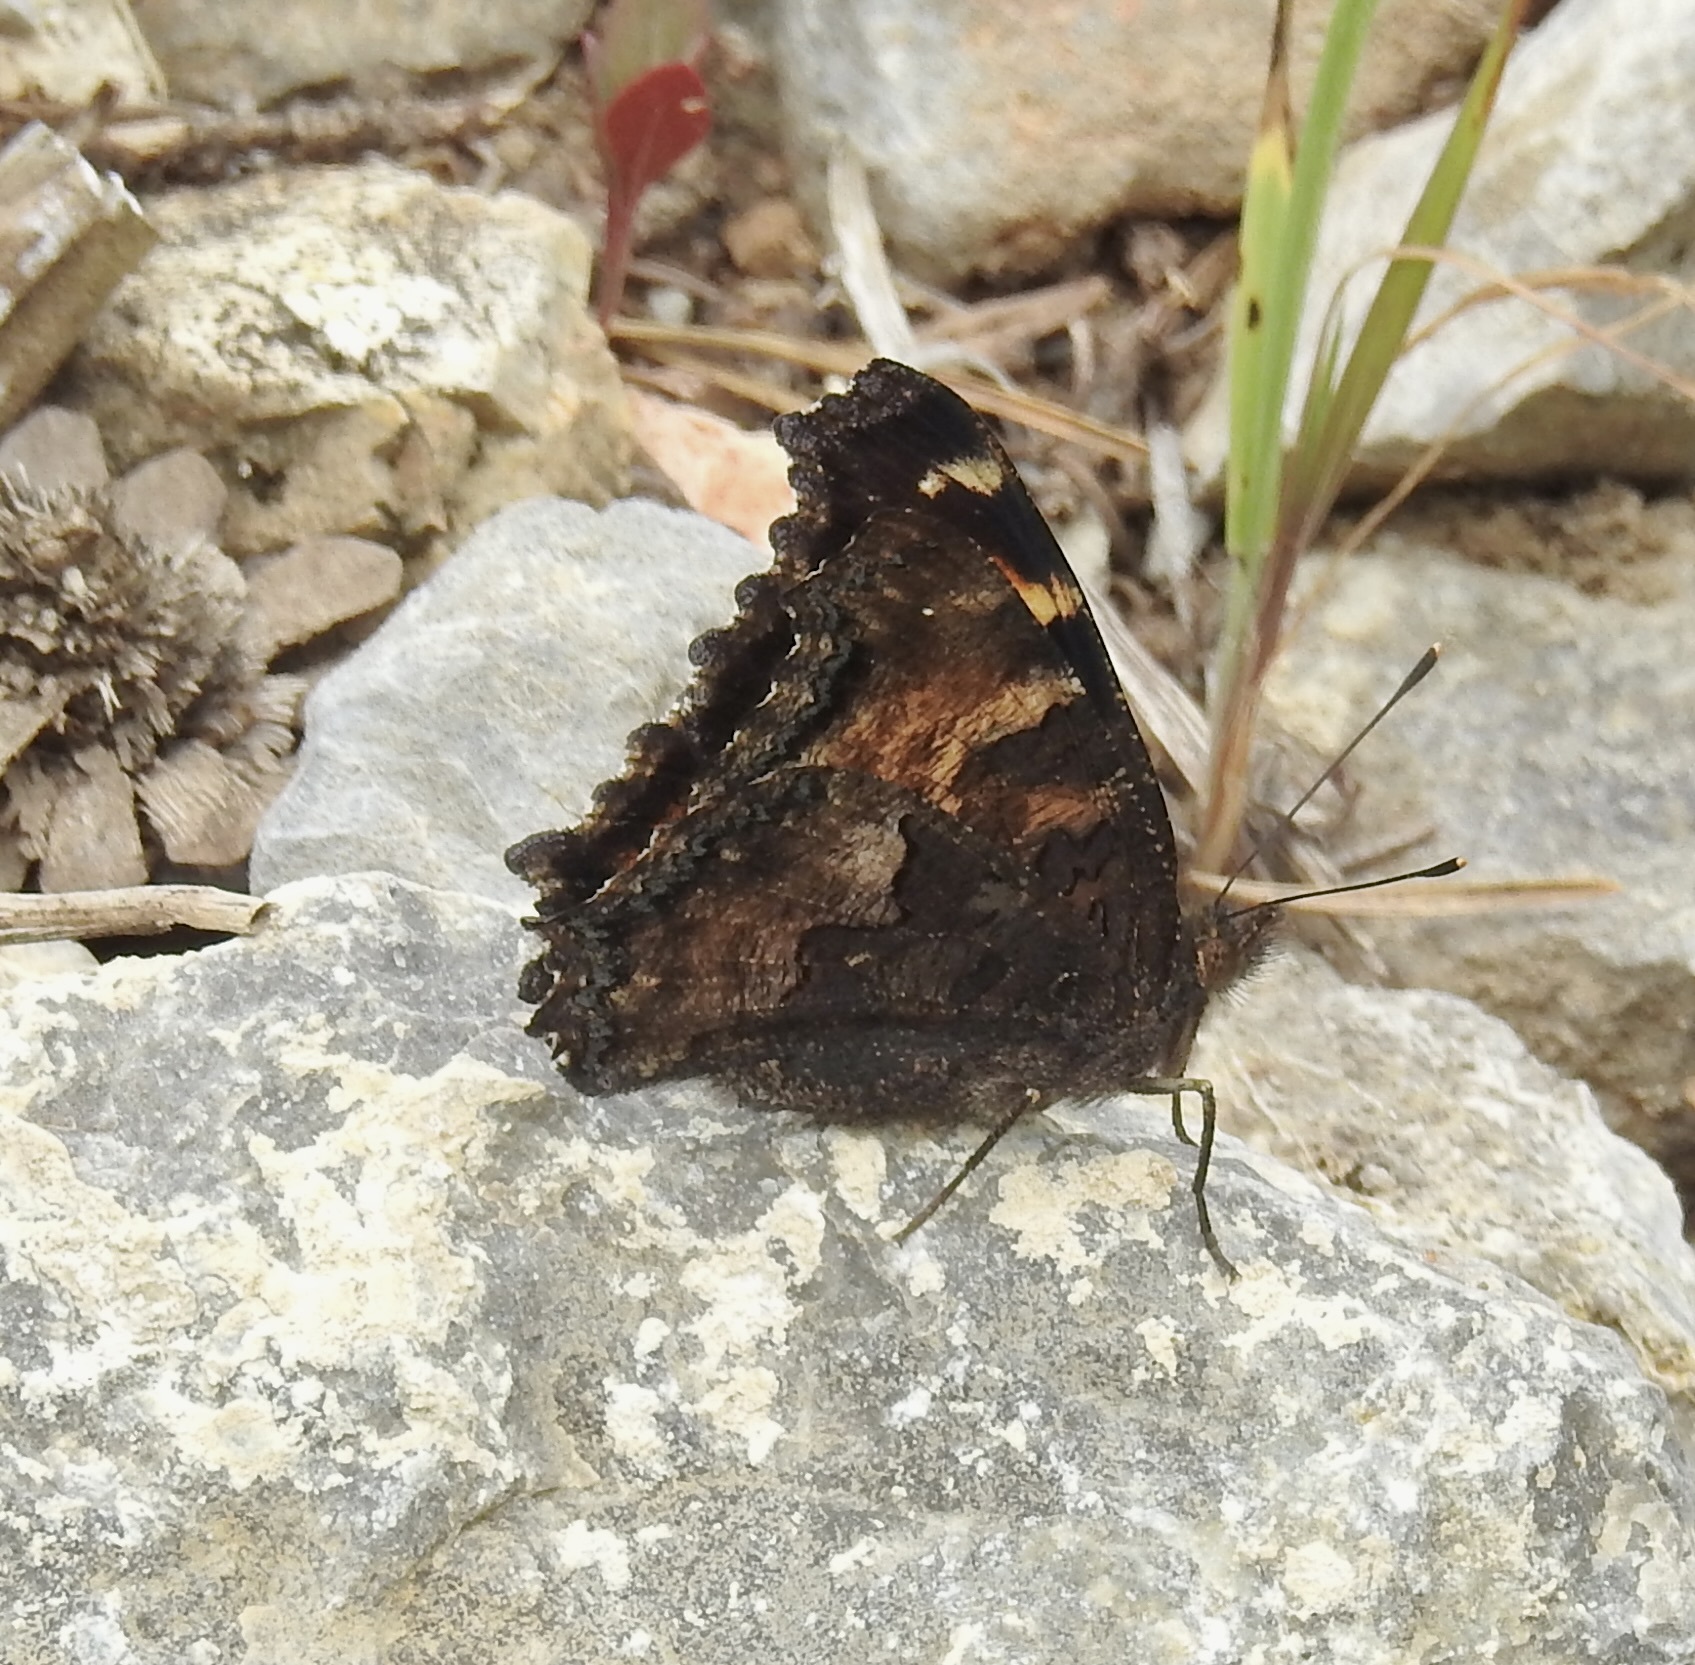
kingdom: Animalia
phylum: Arthropoda
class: Insecta
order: Lepidoptera
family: Nymphalidae
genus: Nymphalis
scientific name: Nymphalis californica
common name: California tortoiseshell
